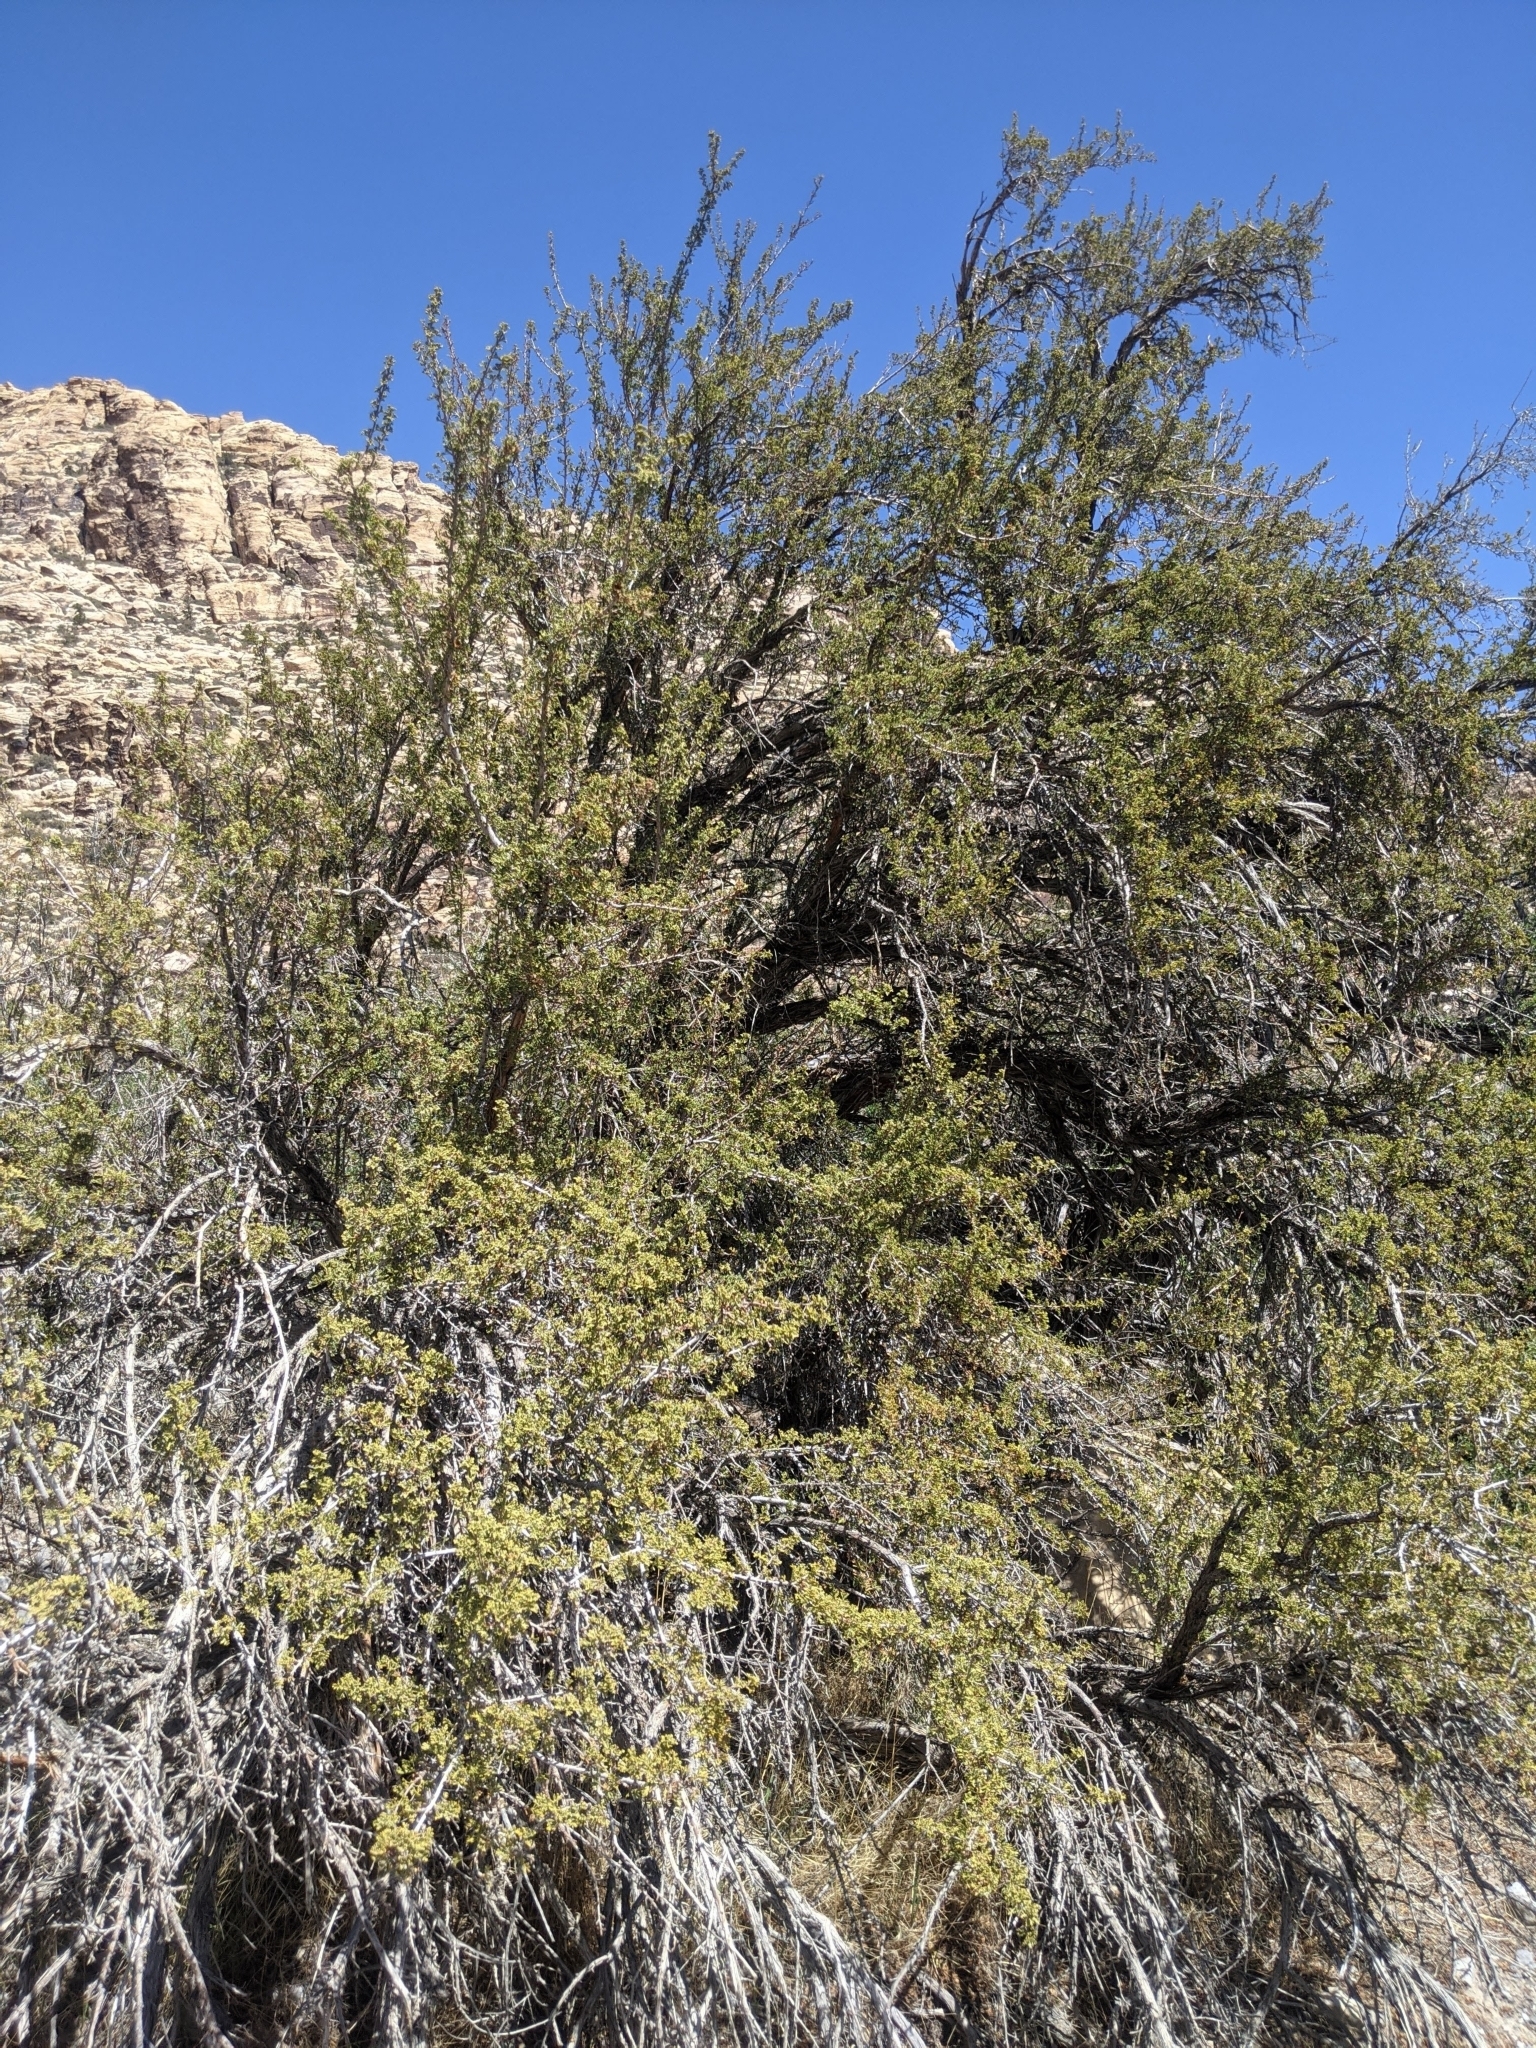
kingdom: Plantae
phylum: Tracheophyta
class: Magnoliopsida
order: Rosales
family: Rosaceae
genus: Purshia
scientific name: Purshia stansburiana
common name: Stansbury's cliffrose
